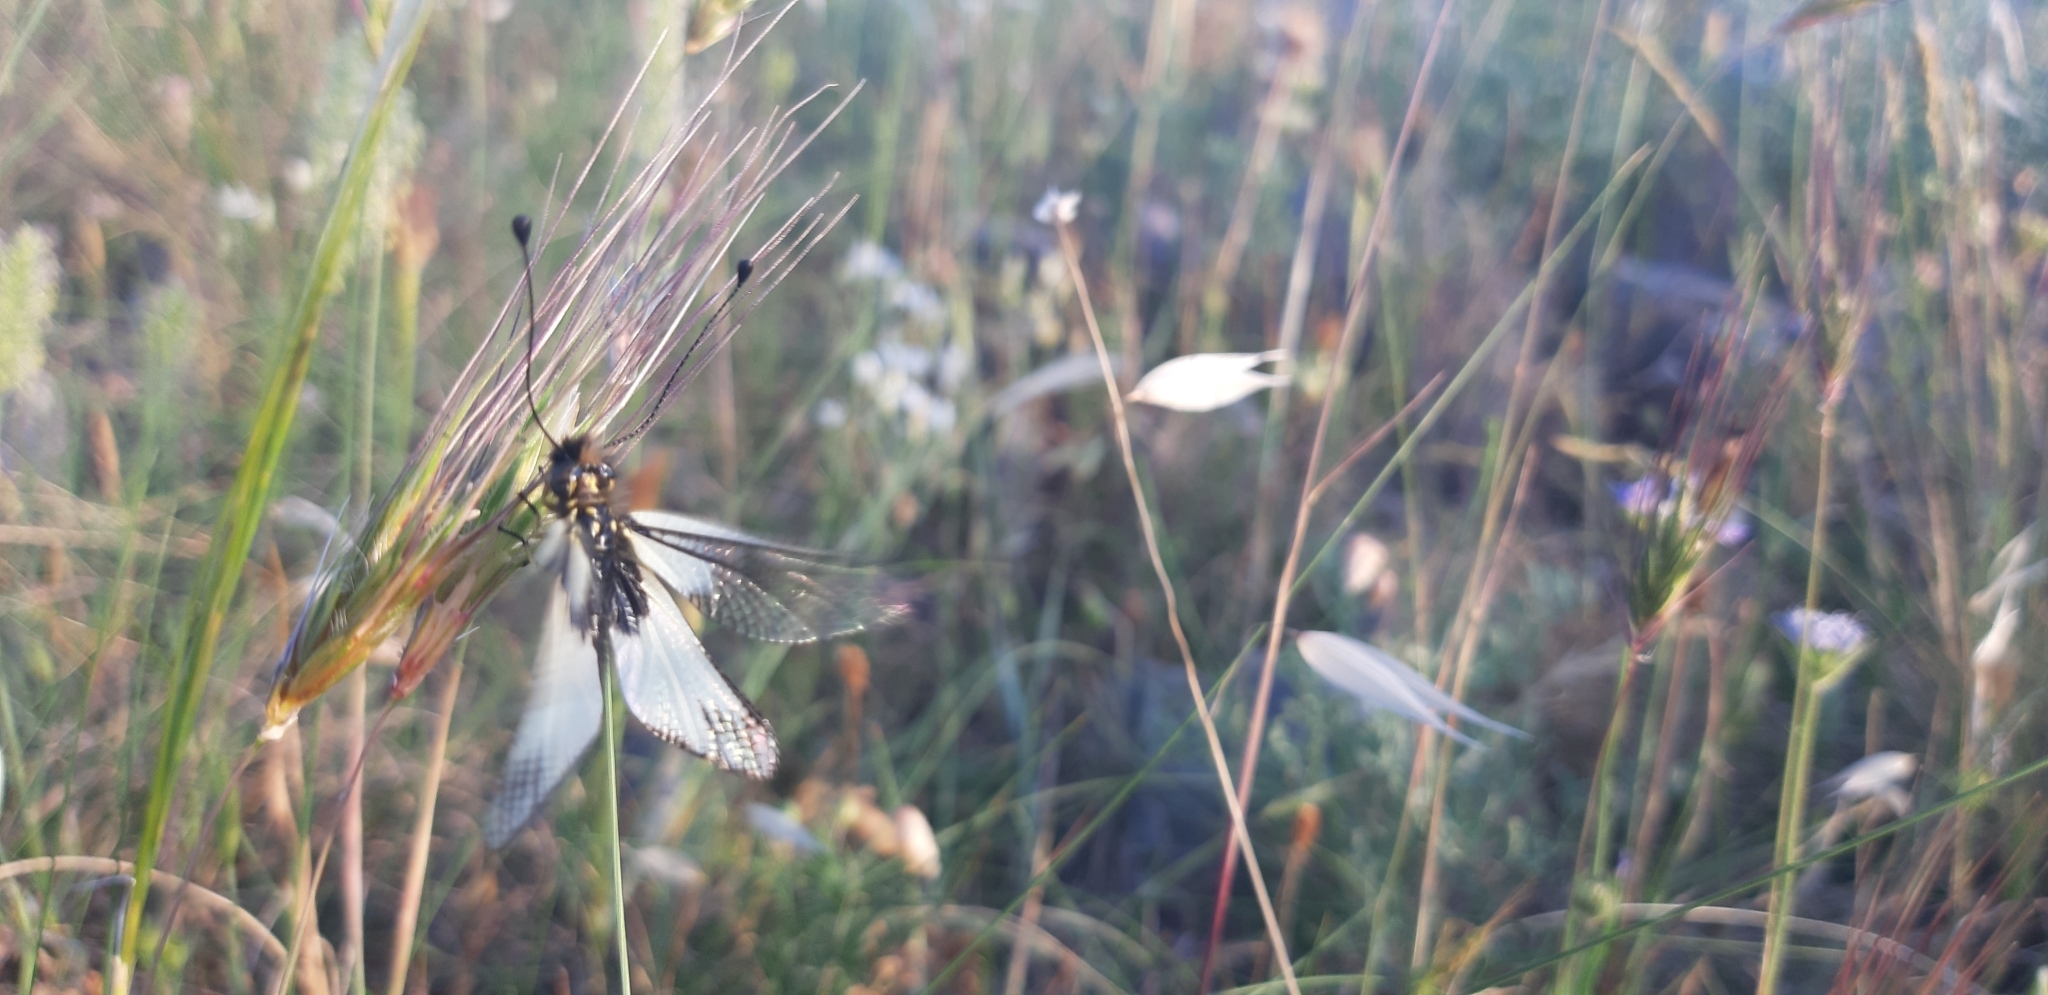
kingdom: Animalia
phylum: Arthropoda
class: Insecta
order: Neuroptera
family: Ascalaphidae
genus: Libelloides
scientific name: Libelloides latinus
